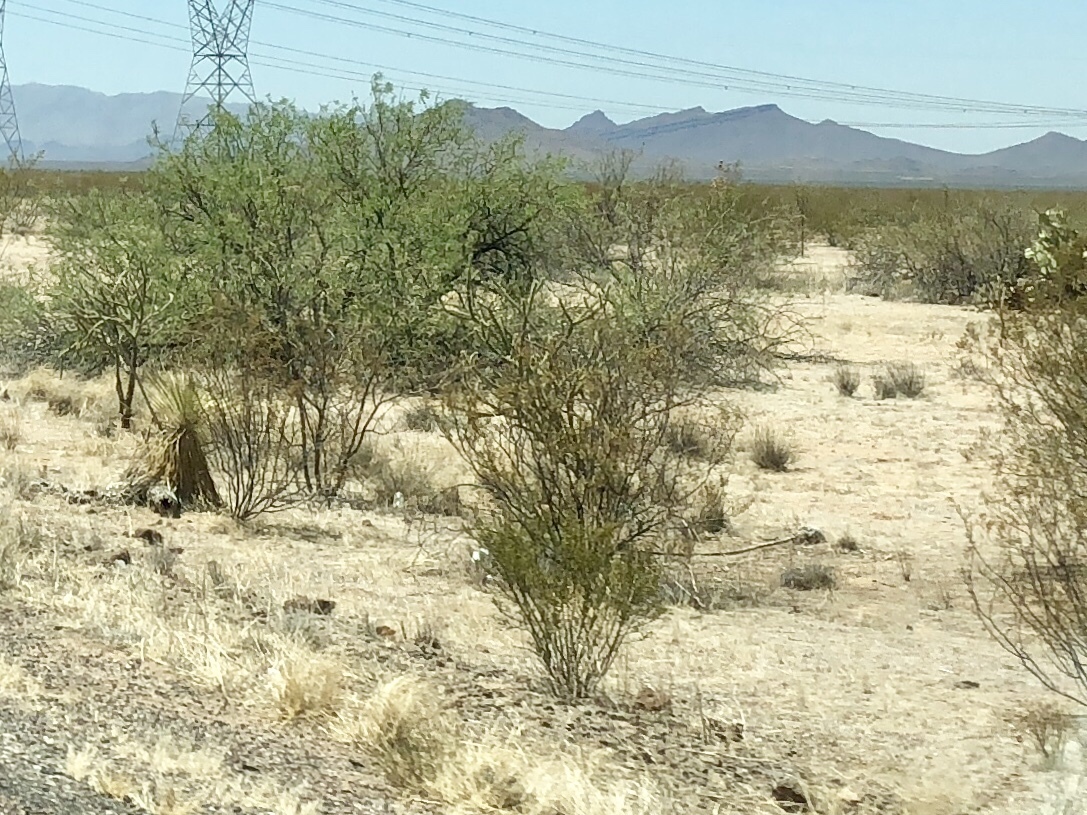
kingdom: Plantae
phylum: Tracheophyta
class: Magnoliopsida
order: Zygophyllales
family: Zygophyllaceae
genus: Larrea
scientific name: Larrea tridentata
